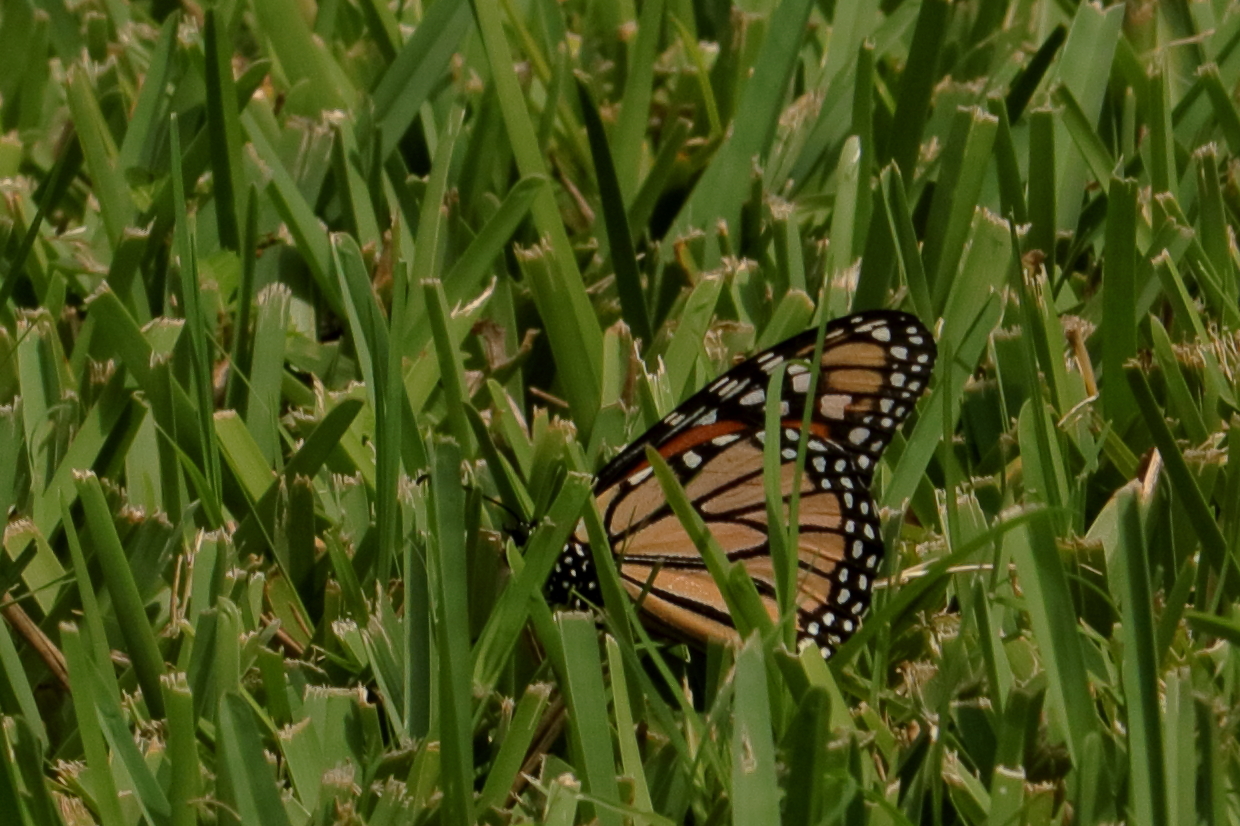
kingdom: Animalia
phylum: Arthropoda
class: Insecta
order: Lepidoptera
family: Nymphalidae
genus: Danaus
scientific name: Danaus plexippus
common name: Monarch
